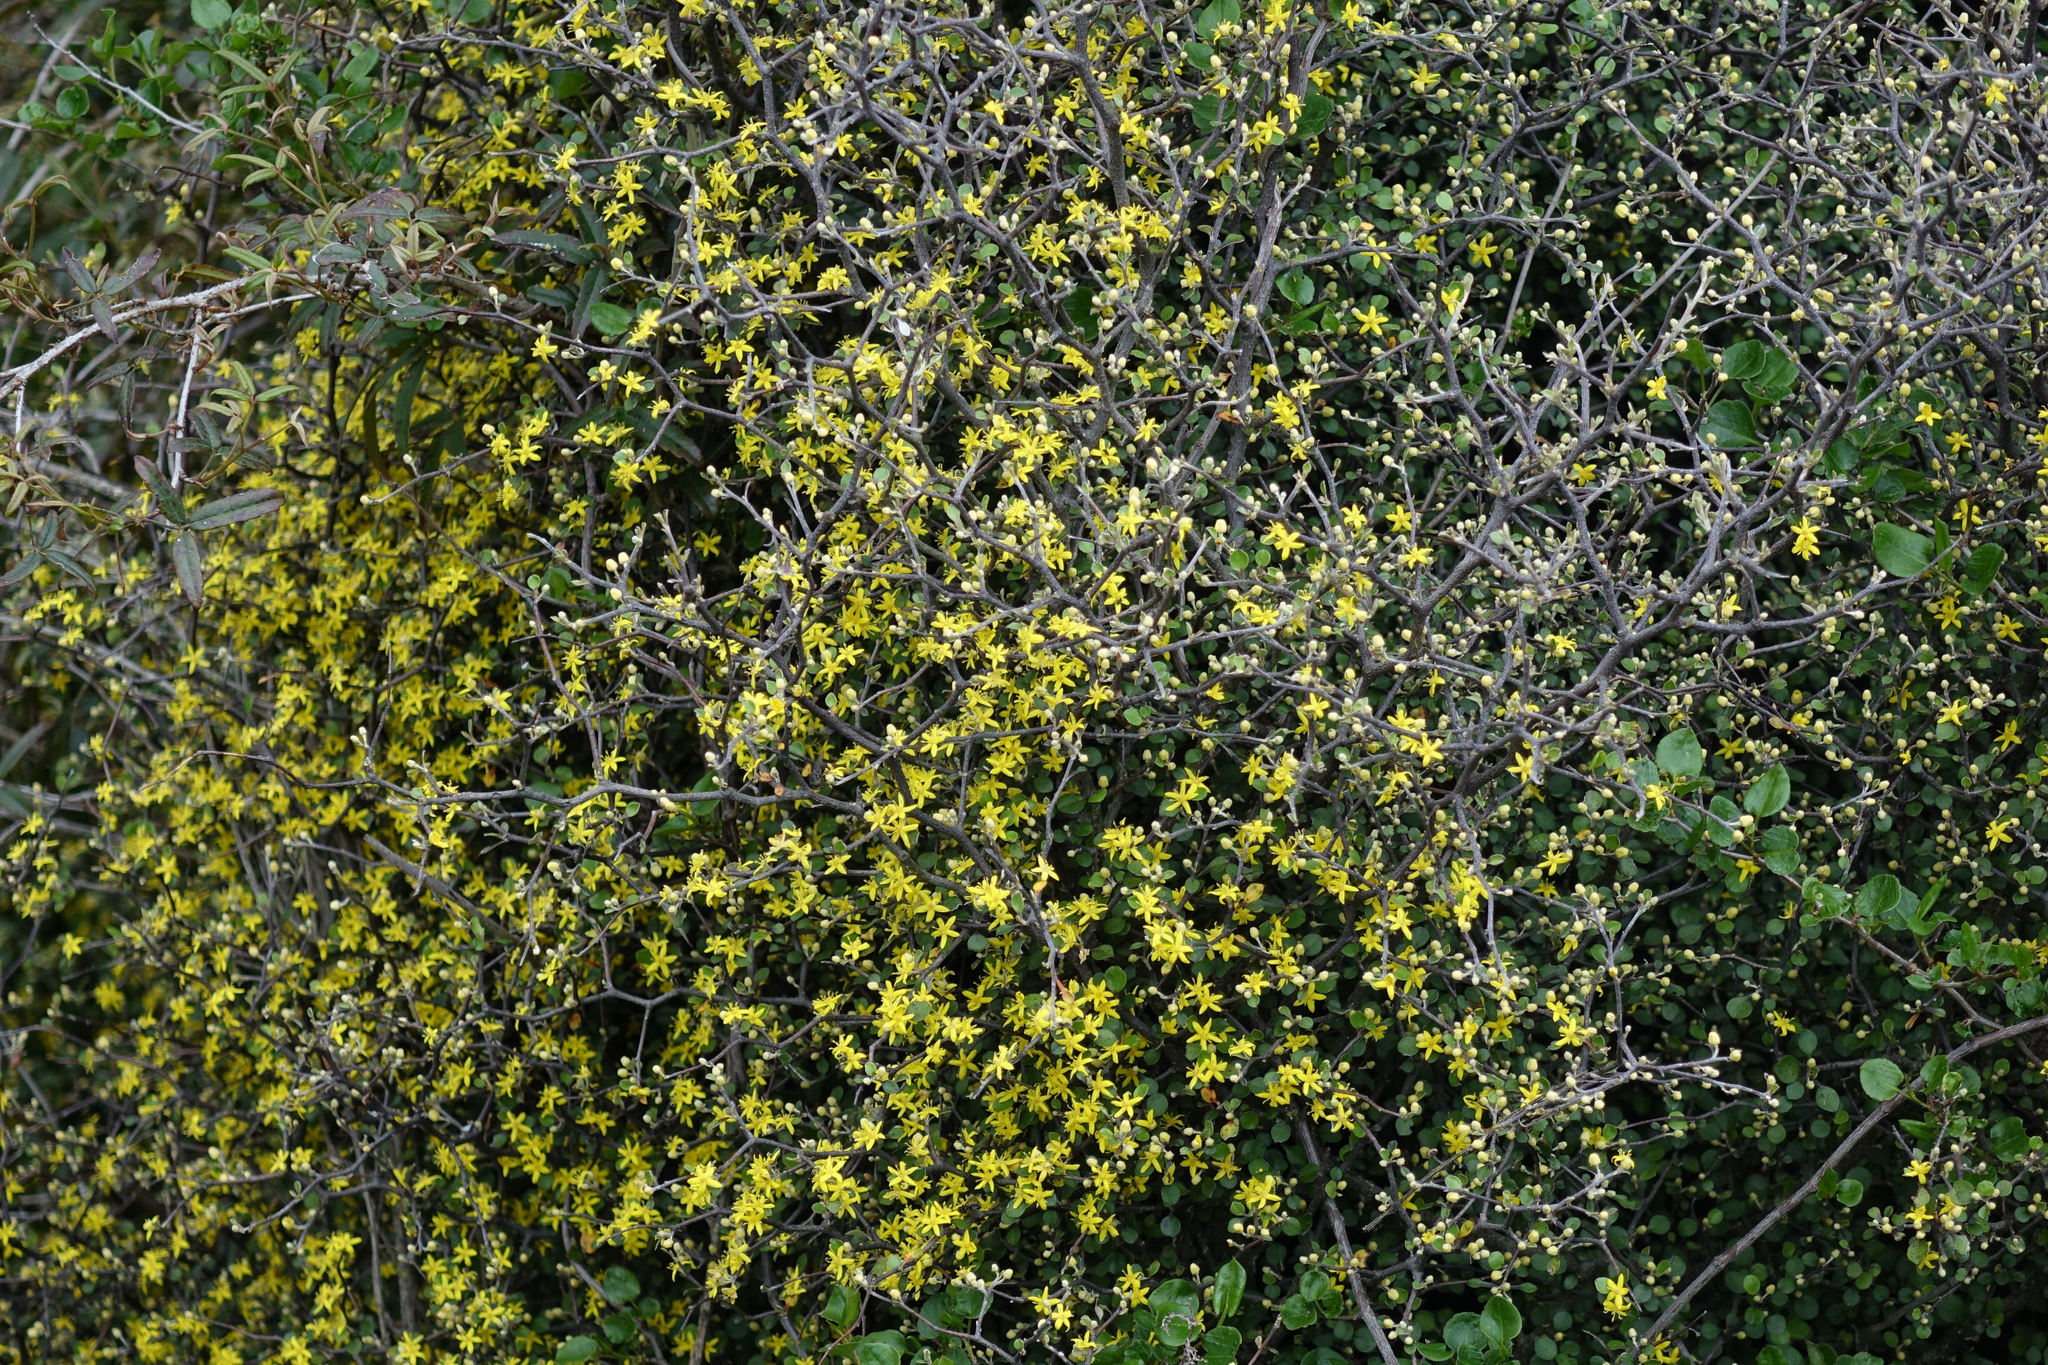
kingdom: Plantae
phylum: Tracheophyta
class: Magnoliopsida
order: Asterales
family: Argophyllaceae
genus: Corokia
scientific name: Corokia cotoneaster
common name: Wire nettingbush
